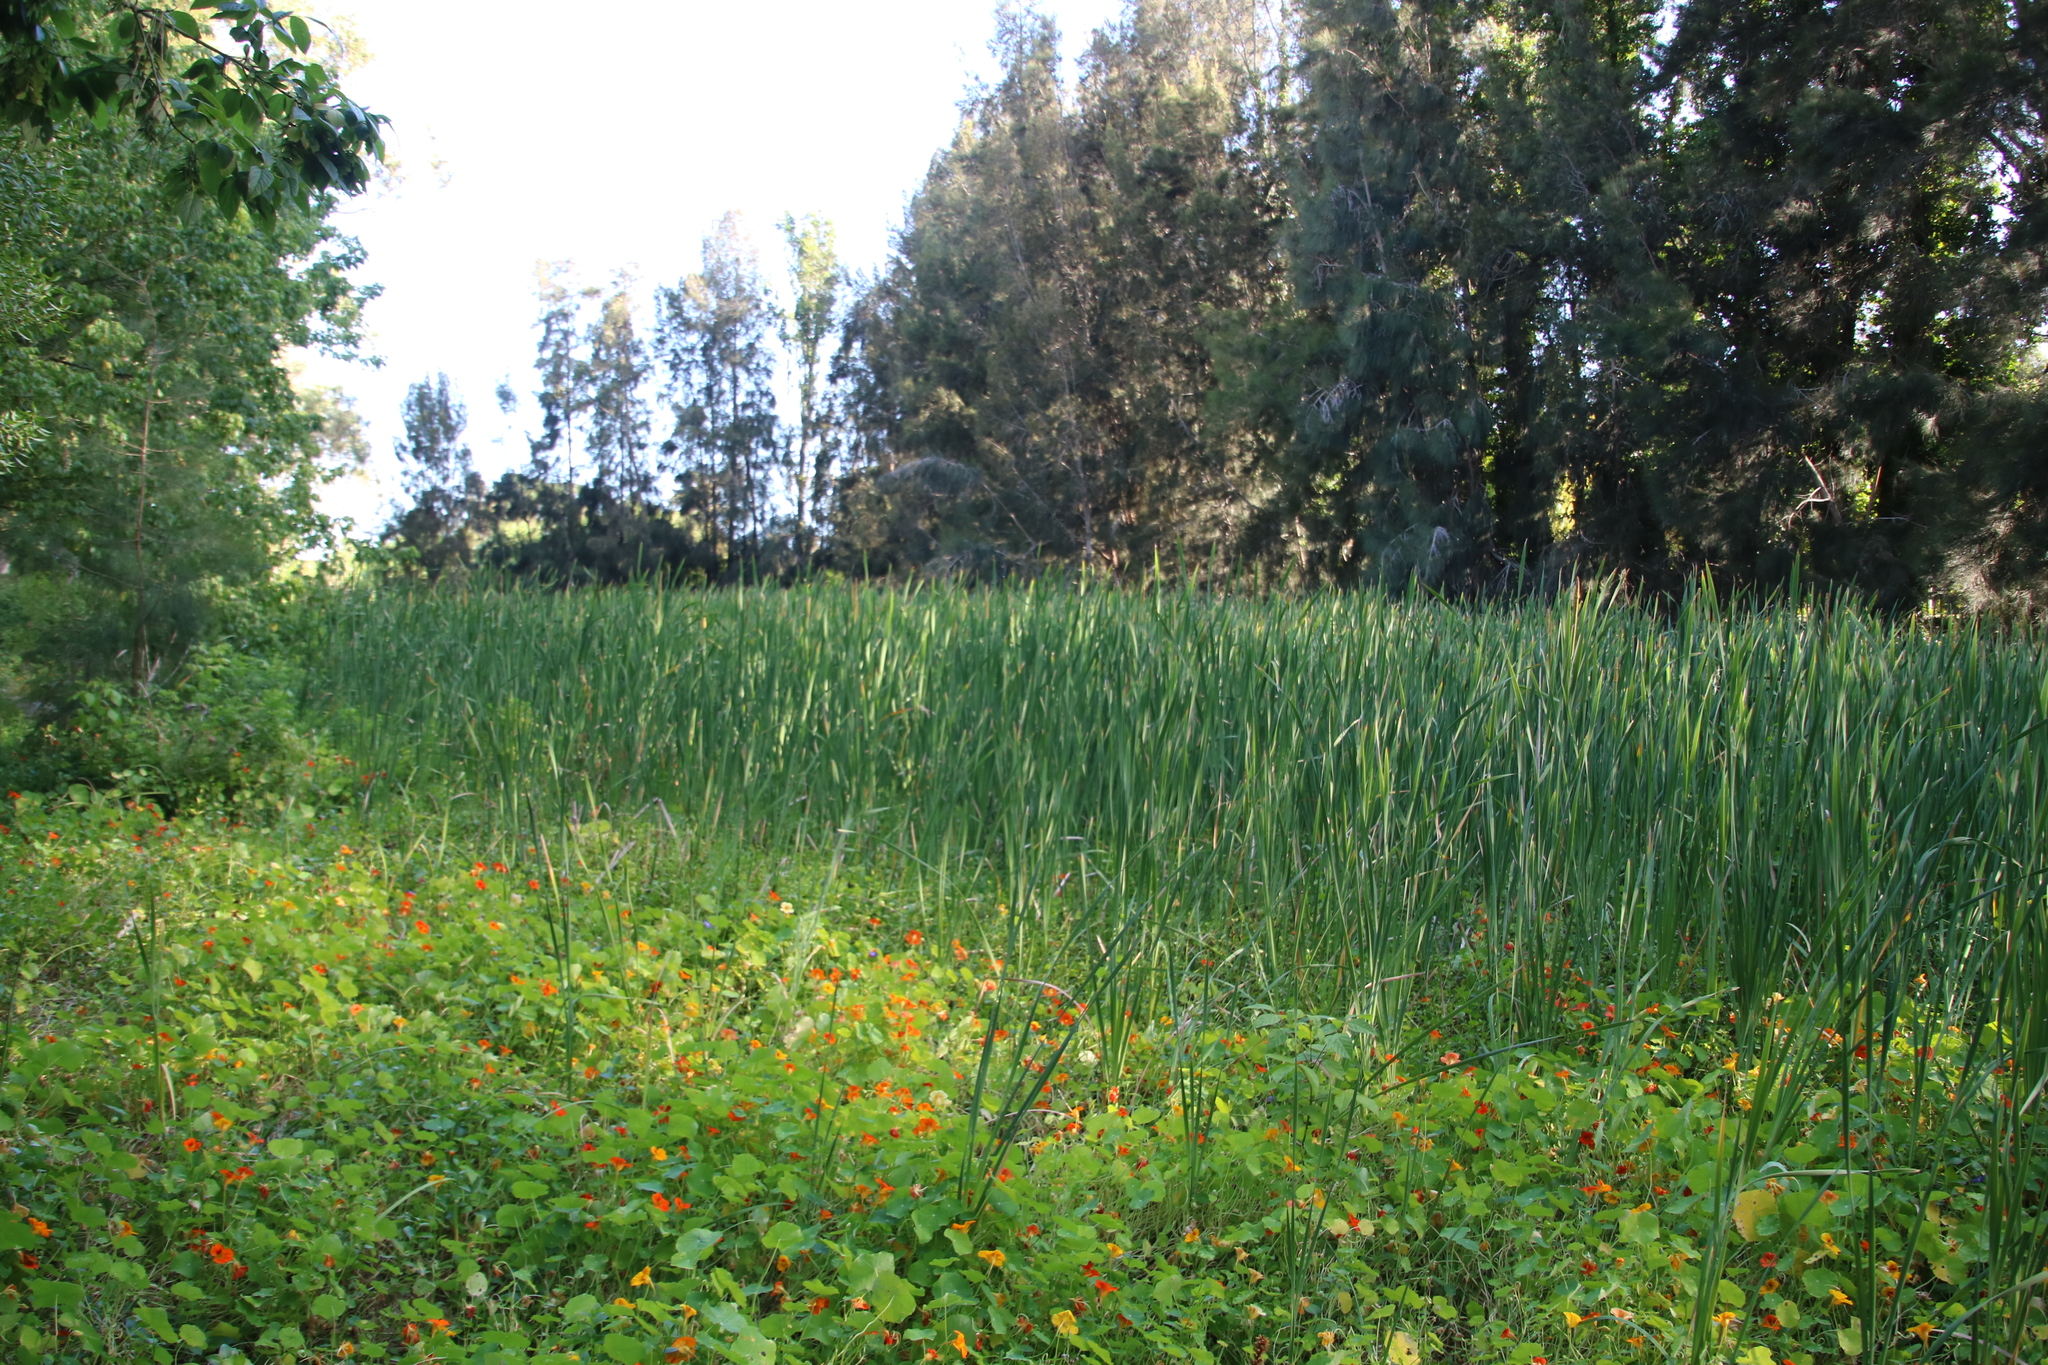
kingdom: Plantae
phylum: Tracheophyta
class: Liliopsida
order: Poales
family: Typhaceae
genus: Typha
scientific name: Typha capensis
